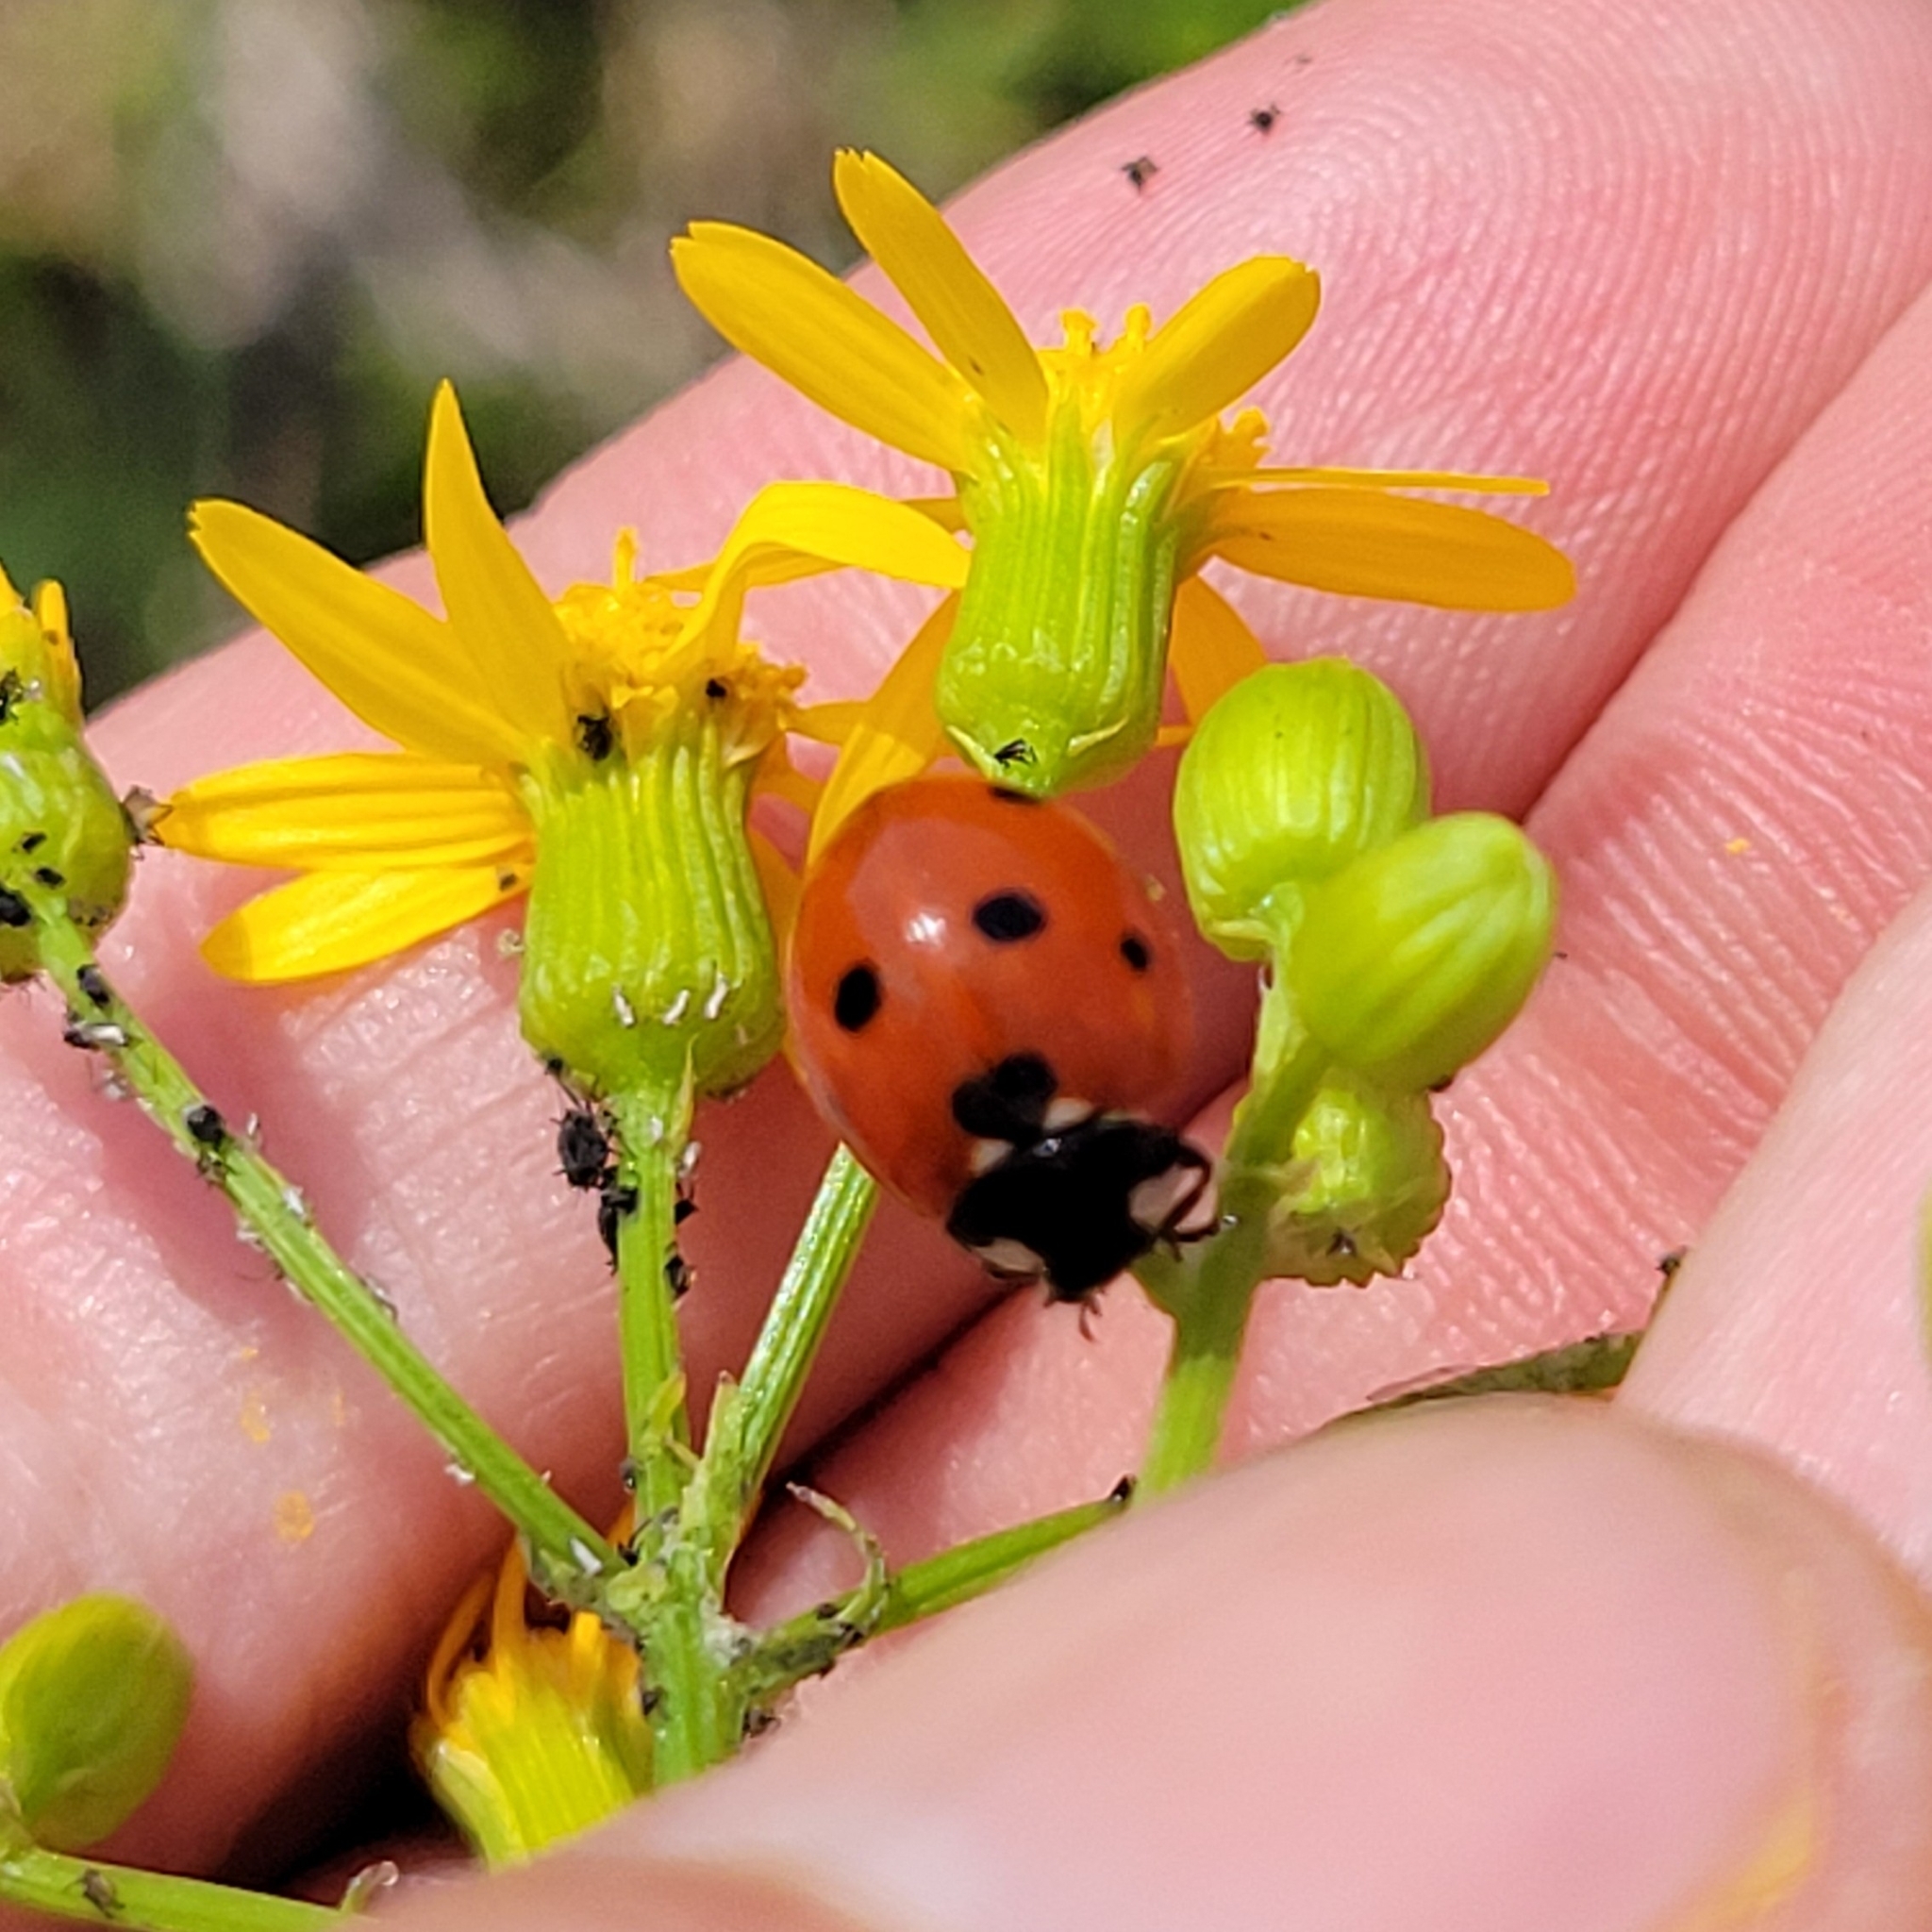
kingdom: Animalia
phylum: Arthropoda
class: Insecta
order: Coleoptera
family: Coccinellidae
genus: Coccinella
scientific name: Coccinella septempunctata
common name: Sevenspotted lady beetle
